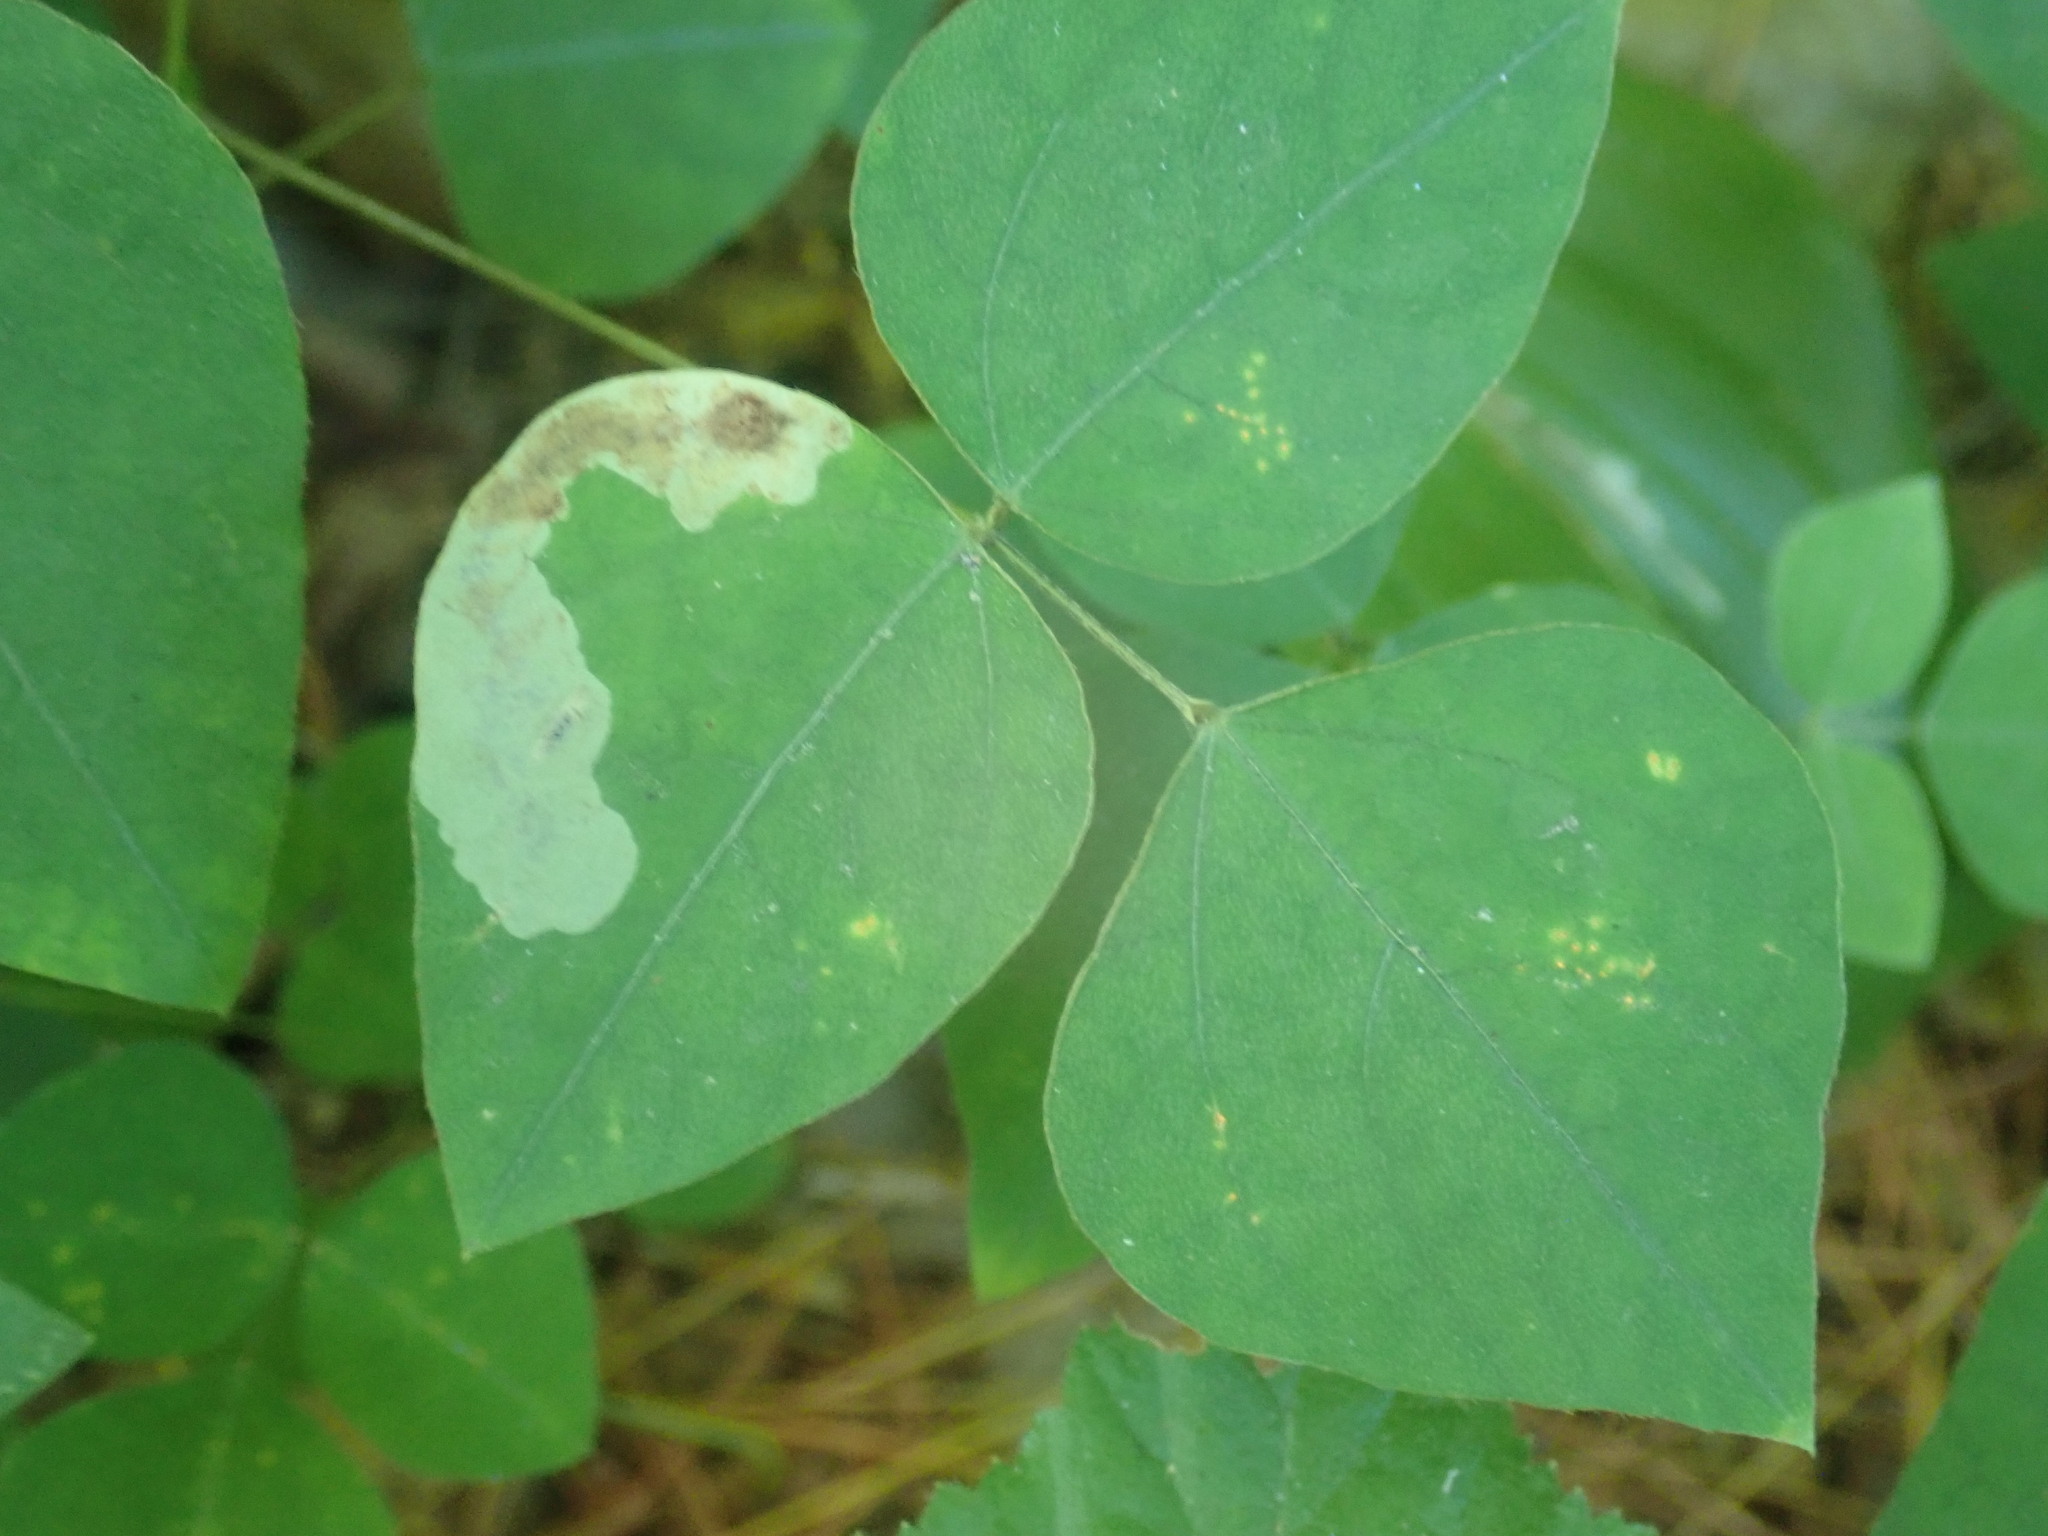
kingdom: Animalia
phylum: Arthropoda
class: Insecta
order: Lepidoptera
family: Gracillariidae
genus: Leucanthiza
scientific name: Leucanthiza amphicarpeaefoliella
